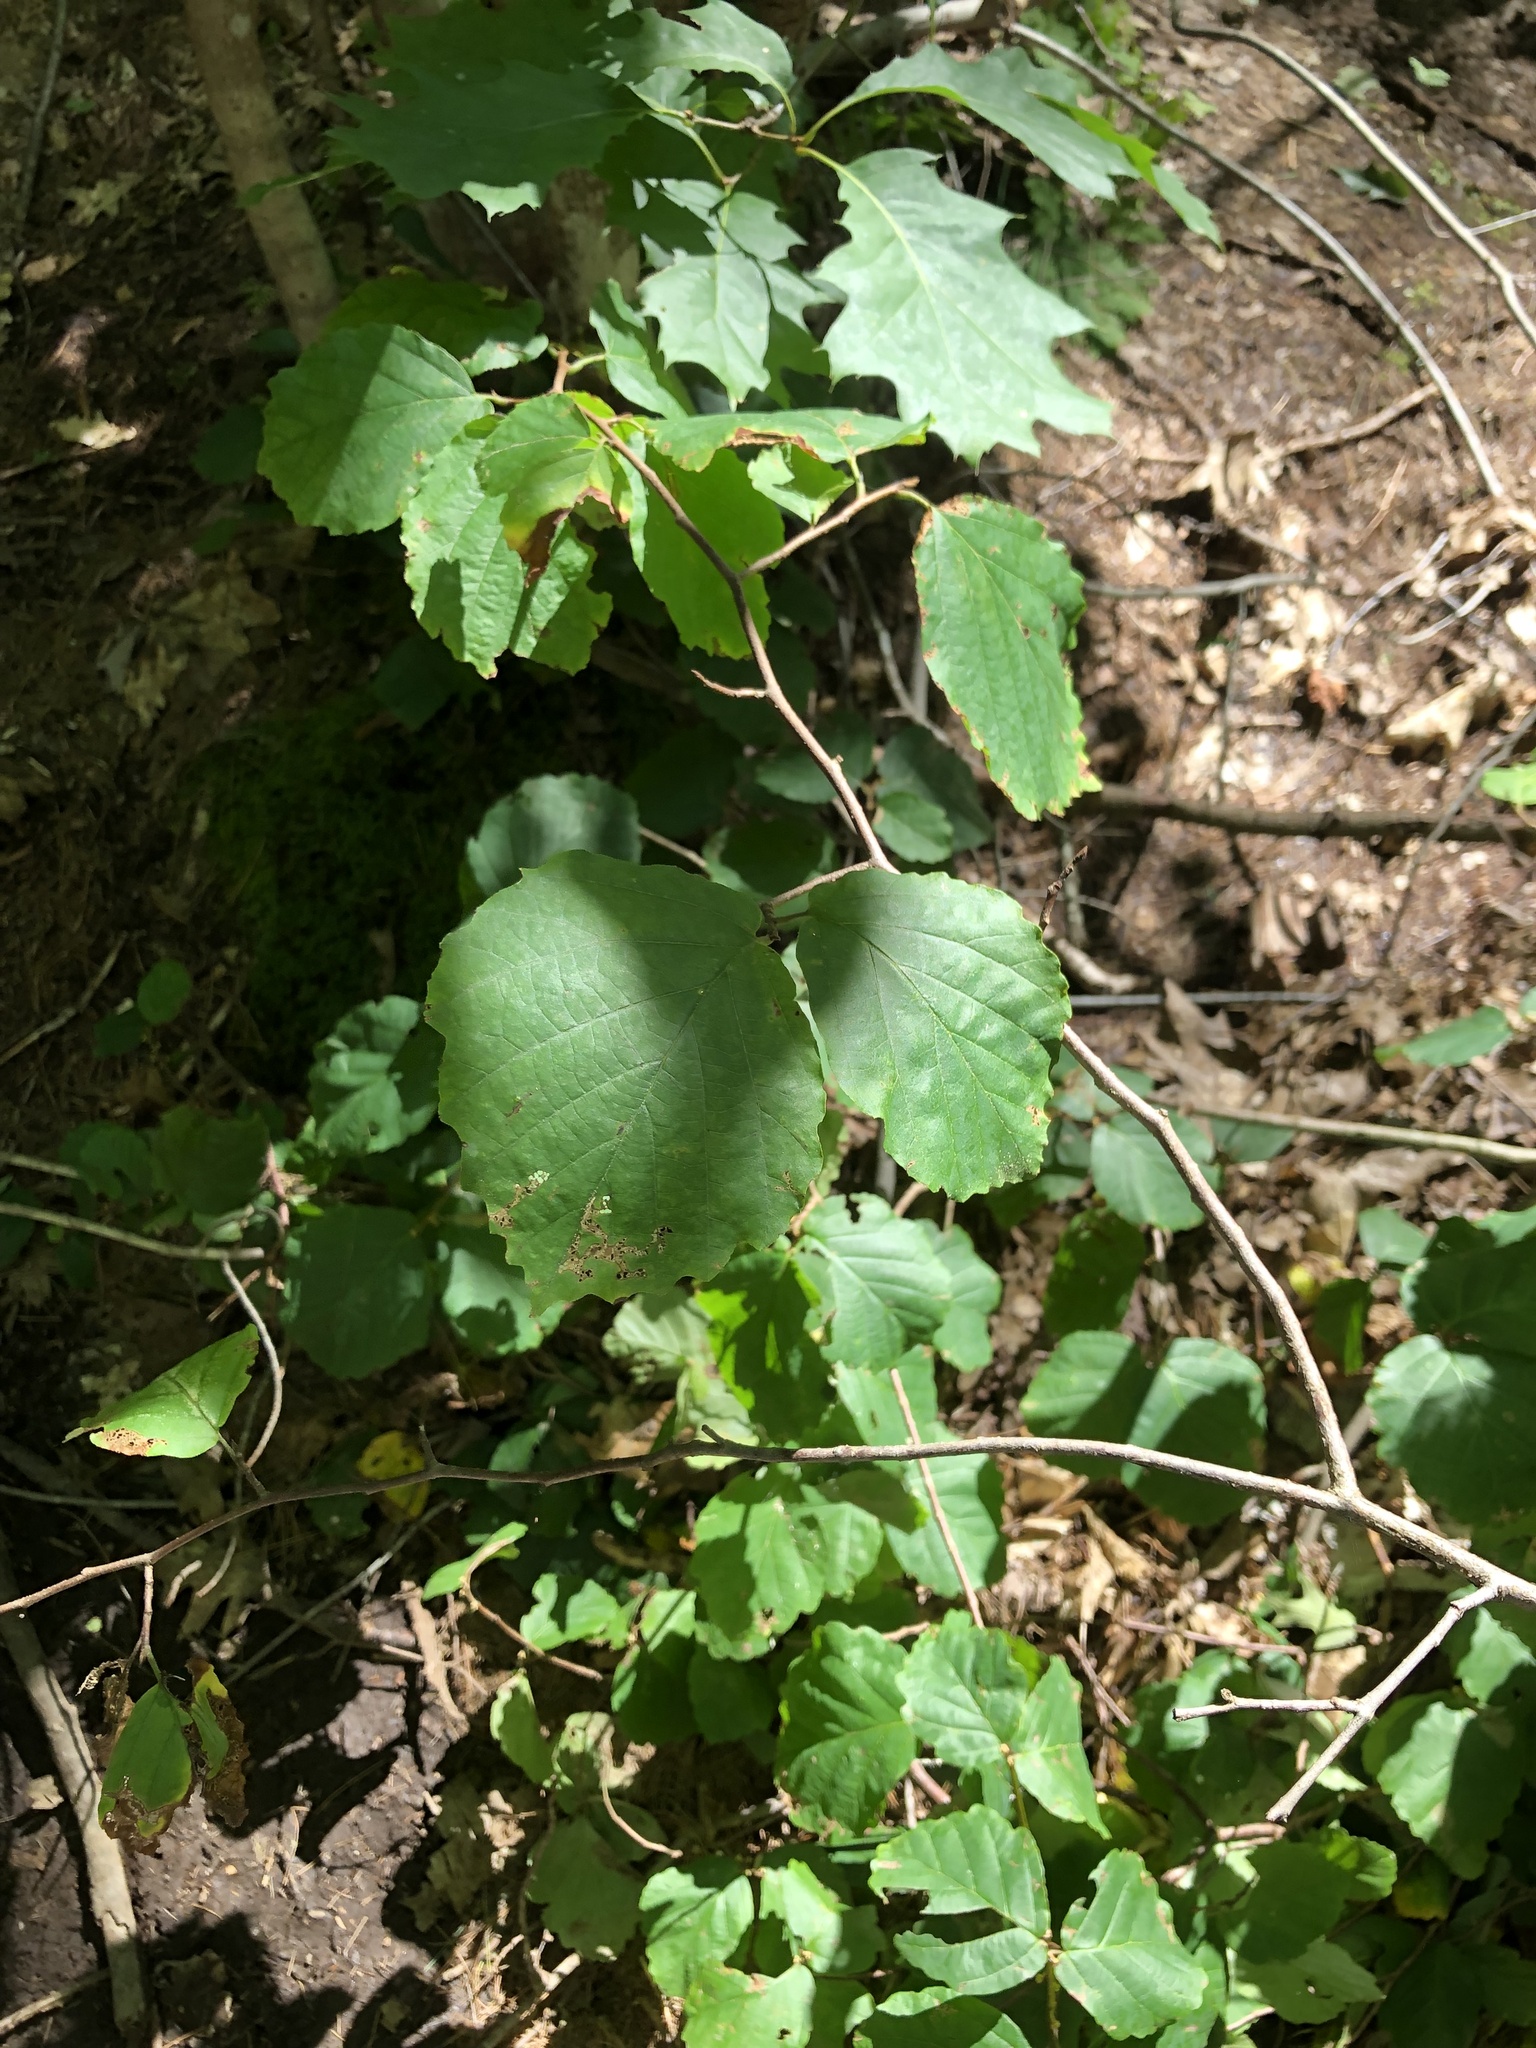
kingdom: Plantae
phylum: Tracheophyta
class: Magnoliopsida
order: Saxifragales
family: Hamamelidaceae
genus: Hamamelis
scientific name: Hamamelis virginiana
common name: Witch-hazel
